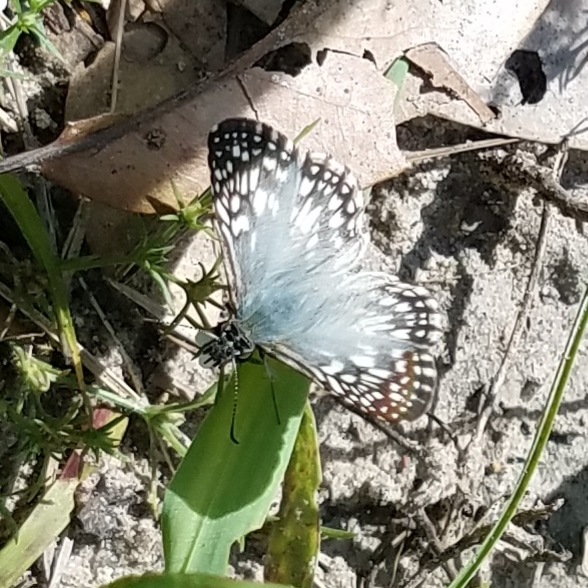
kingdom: Animalia
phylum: Arthropoda
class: Insecta
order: Lepidoptera
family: Hesperiidae
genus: Pyrgus
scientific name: Pyrgus oileus
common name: Tropical checkered-skipper
